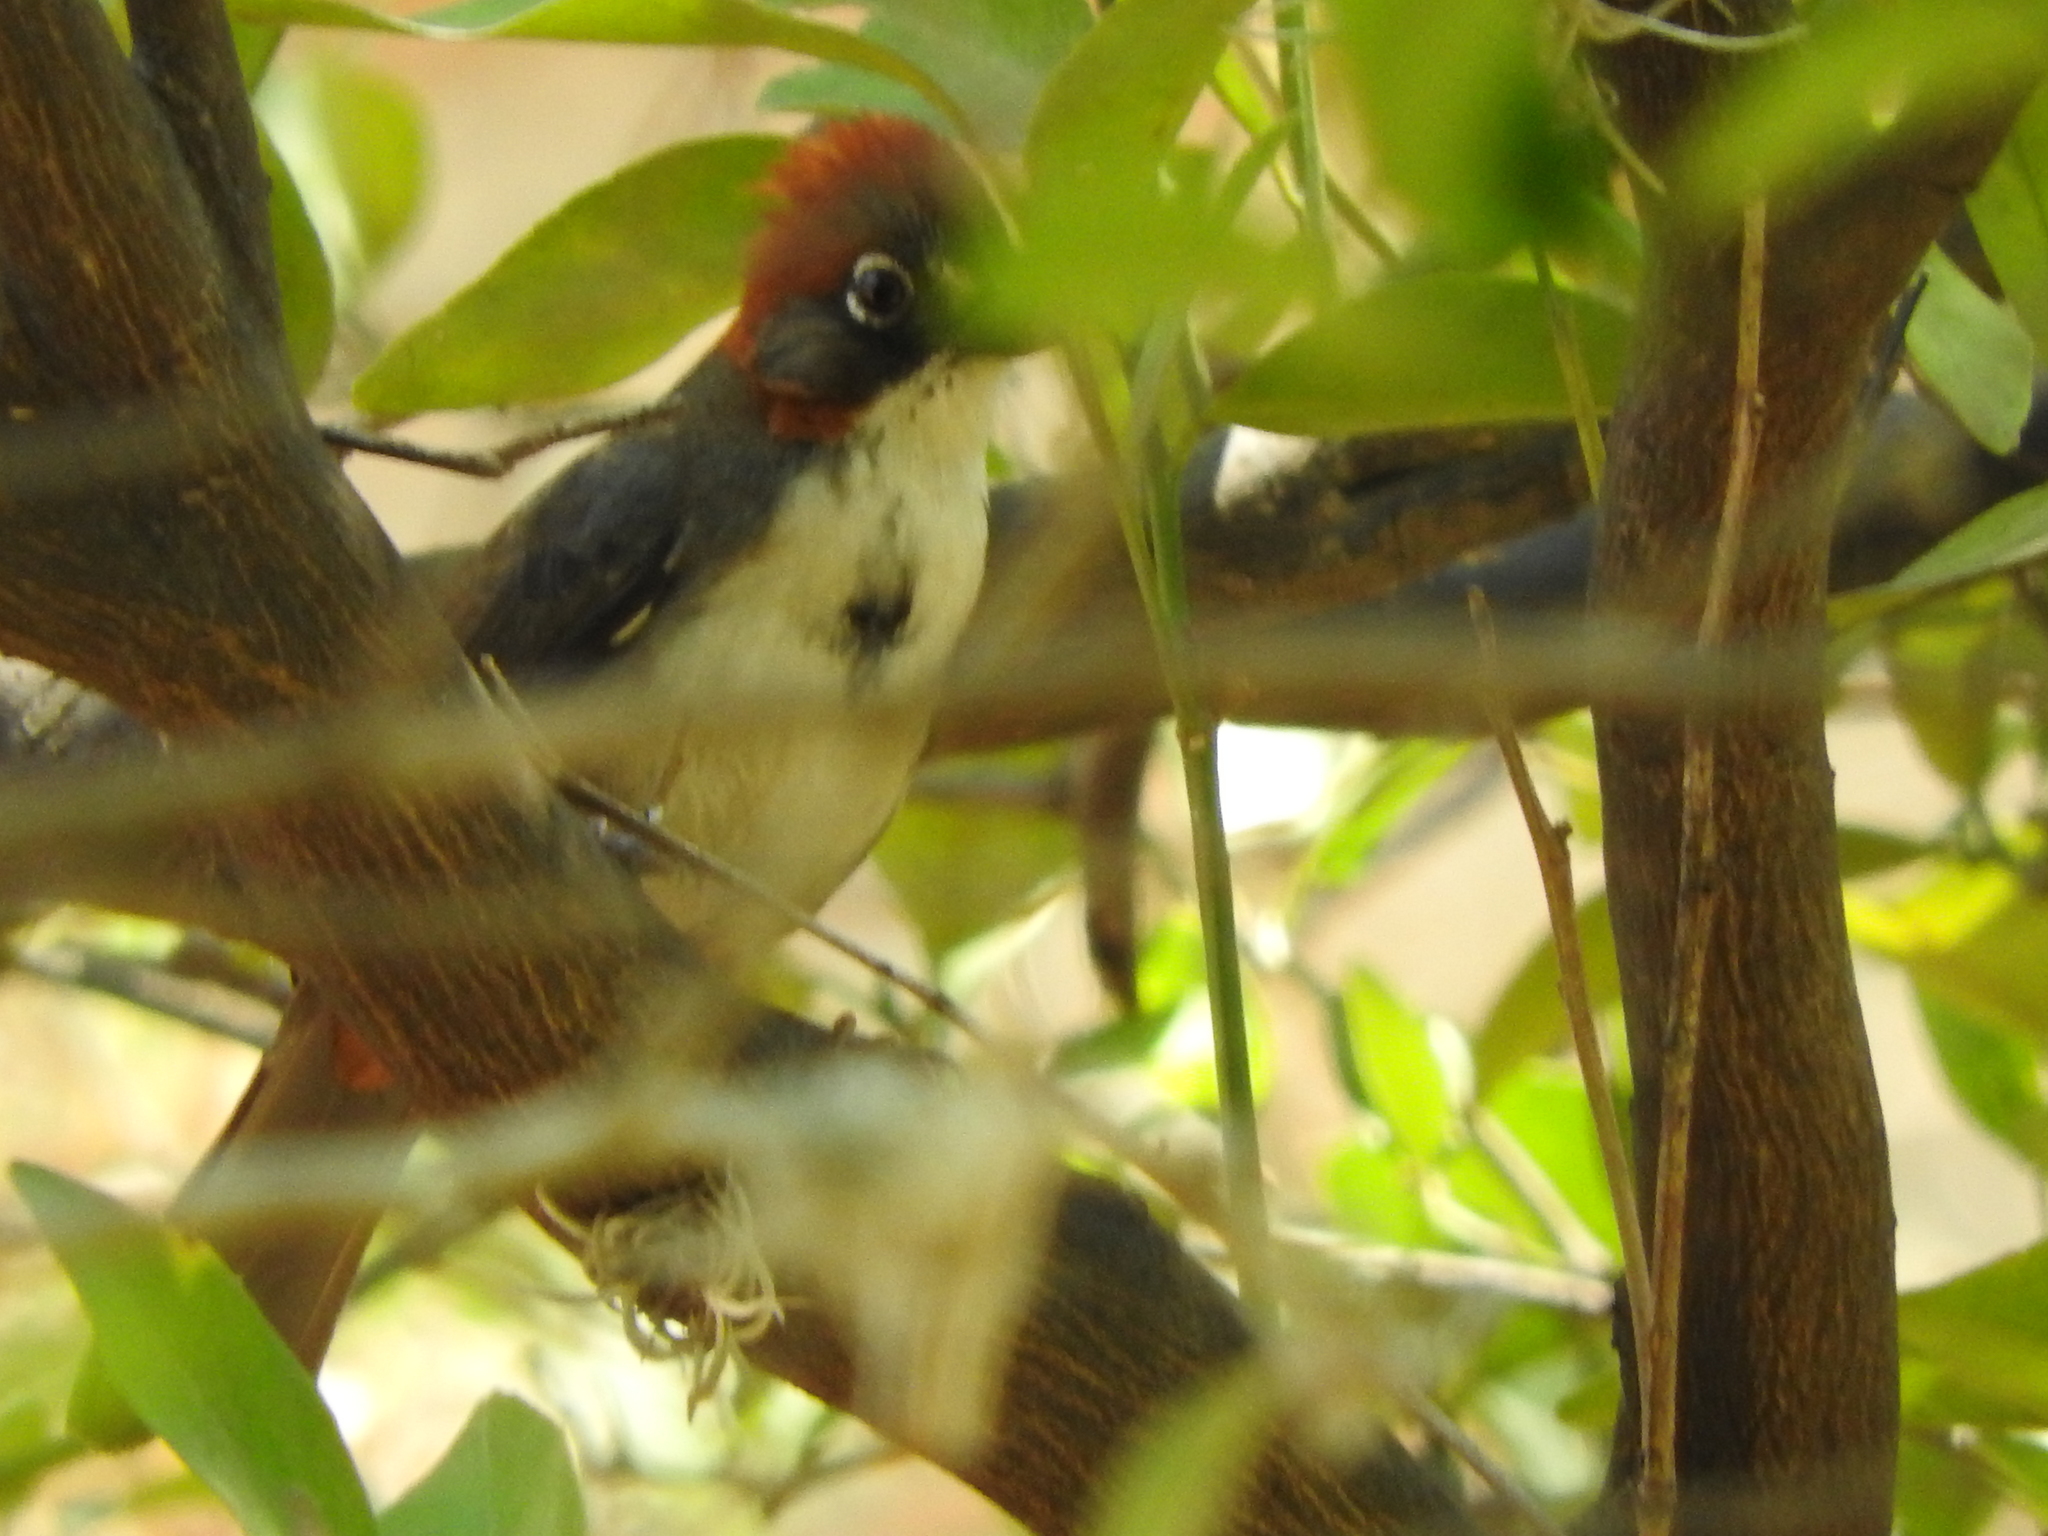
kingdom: Animalia
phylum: Chordata
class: Aves
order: Passeriformes
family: Passerellidae
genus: Melozone
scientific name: Melozone kieneri
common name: Rusty-crowned ground-sparrow
